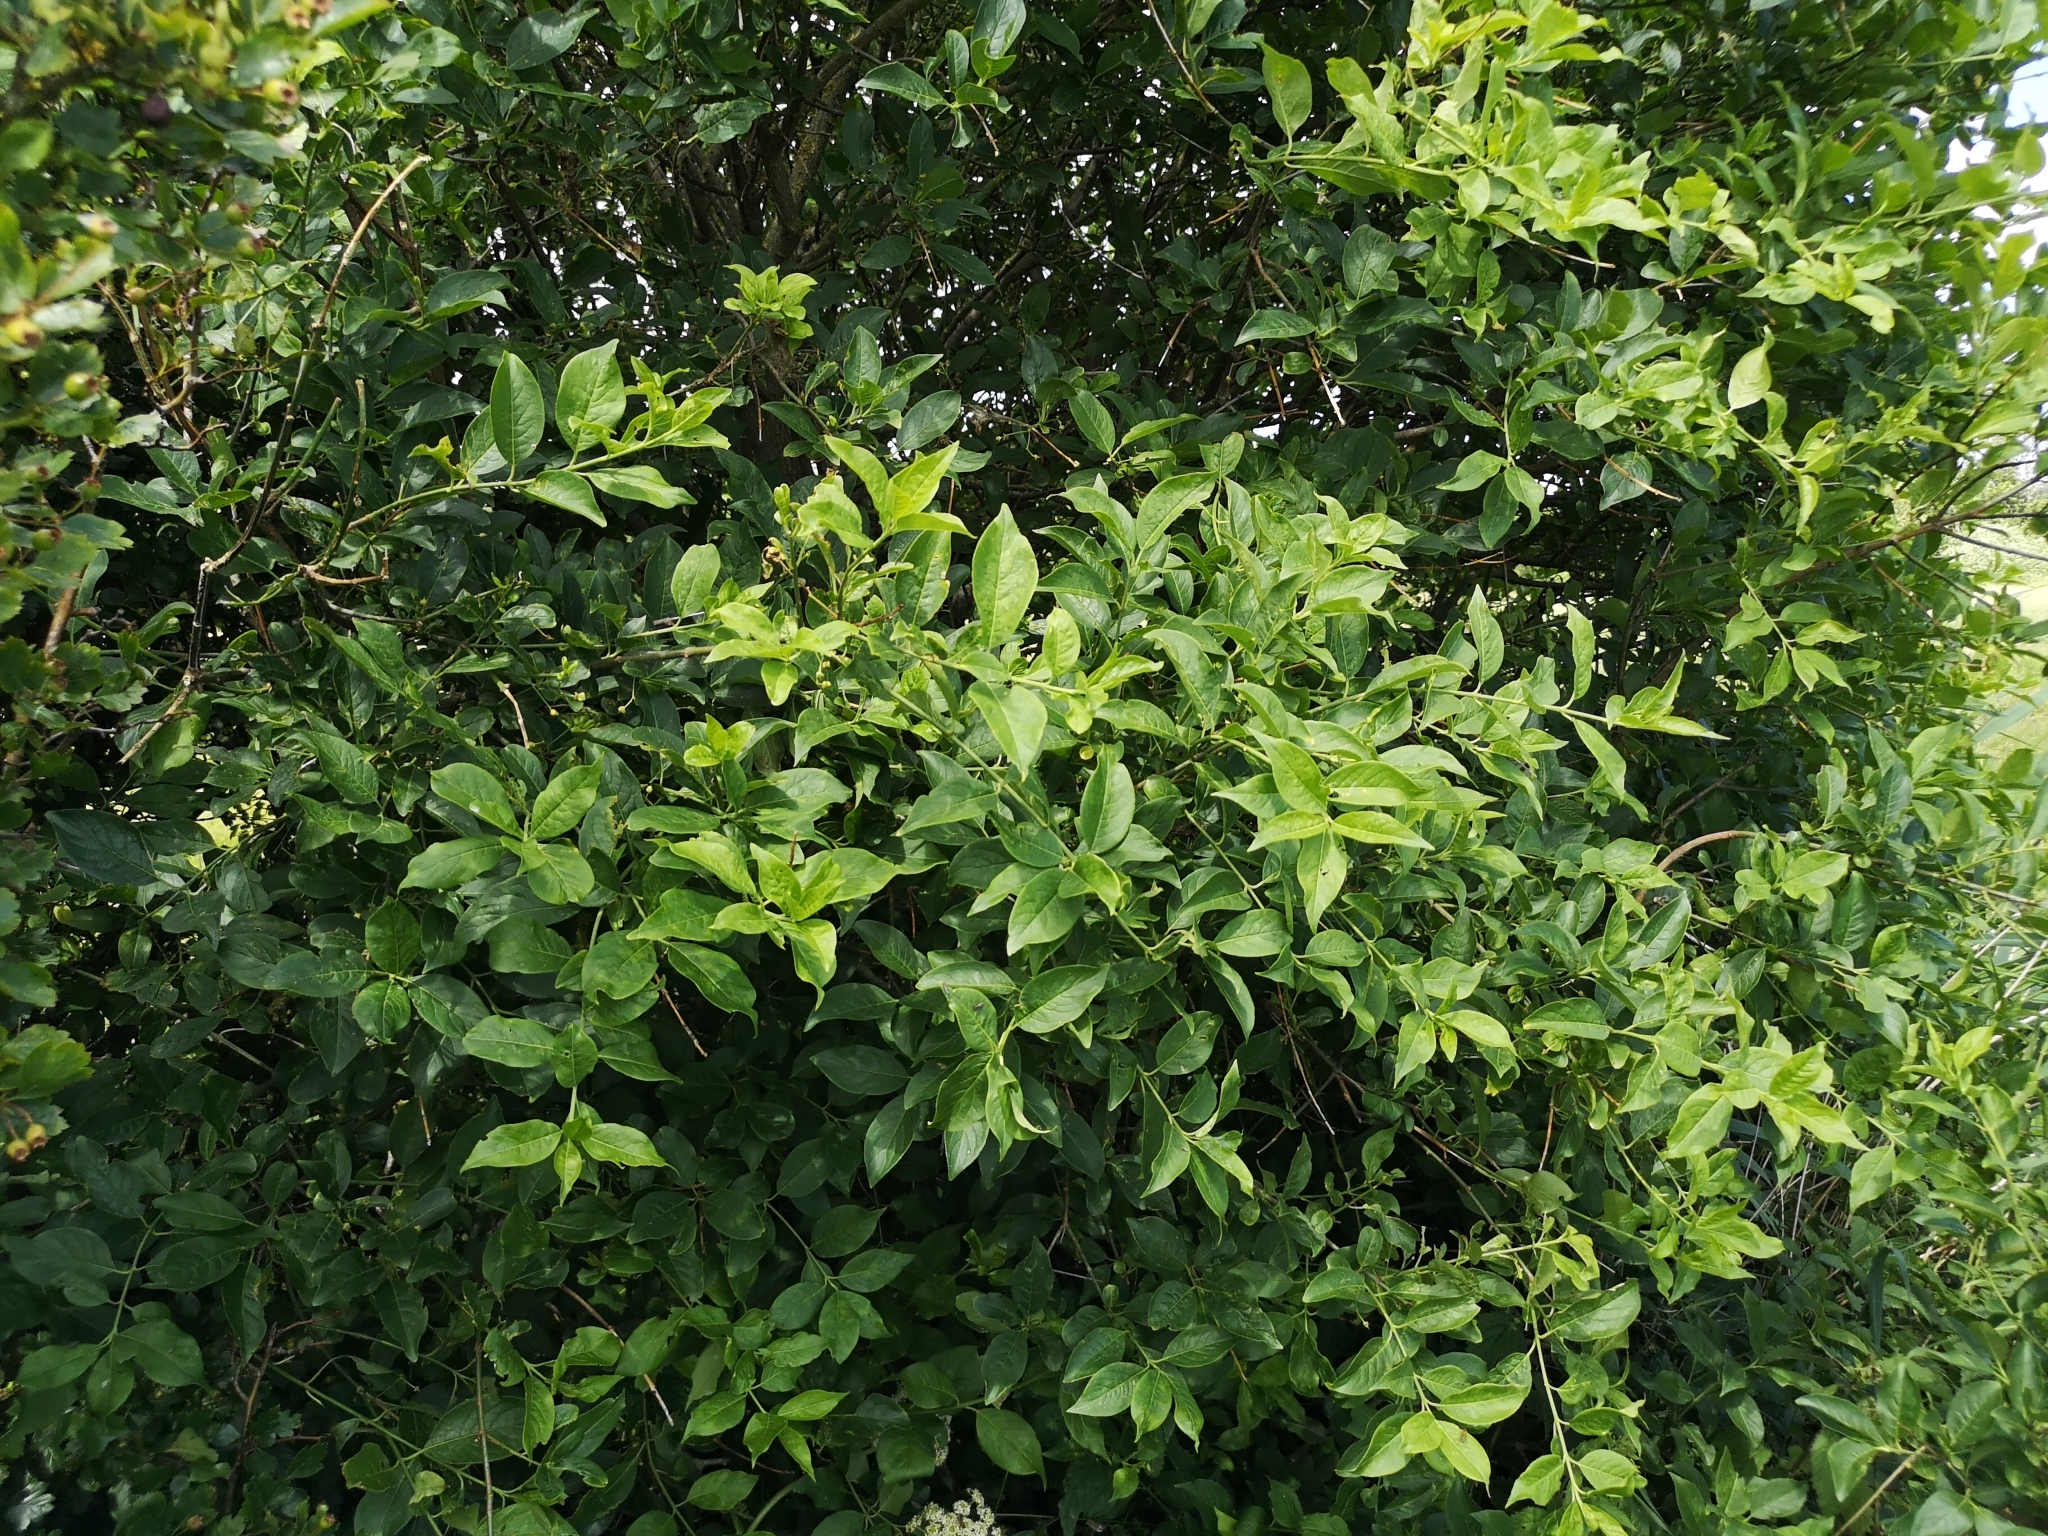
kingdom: Plantae
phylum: Tracheophyta
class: Magnoliopsida
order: Celastrales
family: Celastraceae
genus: Euonymus
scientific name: Euonymus europaeus
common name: Spindle
